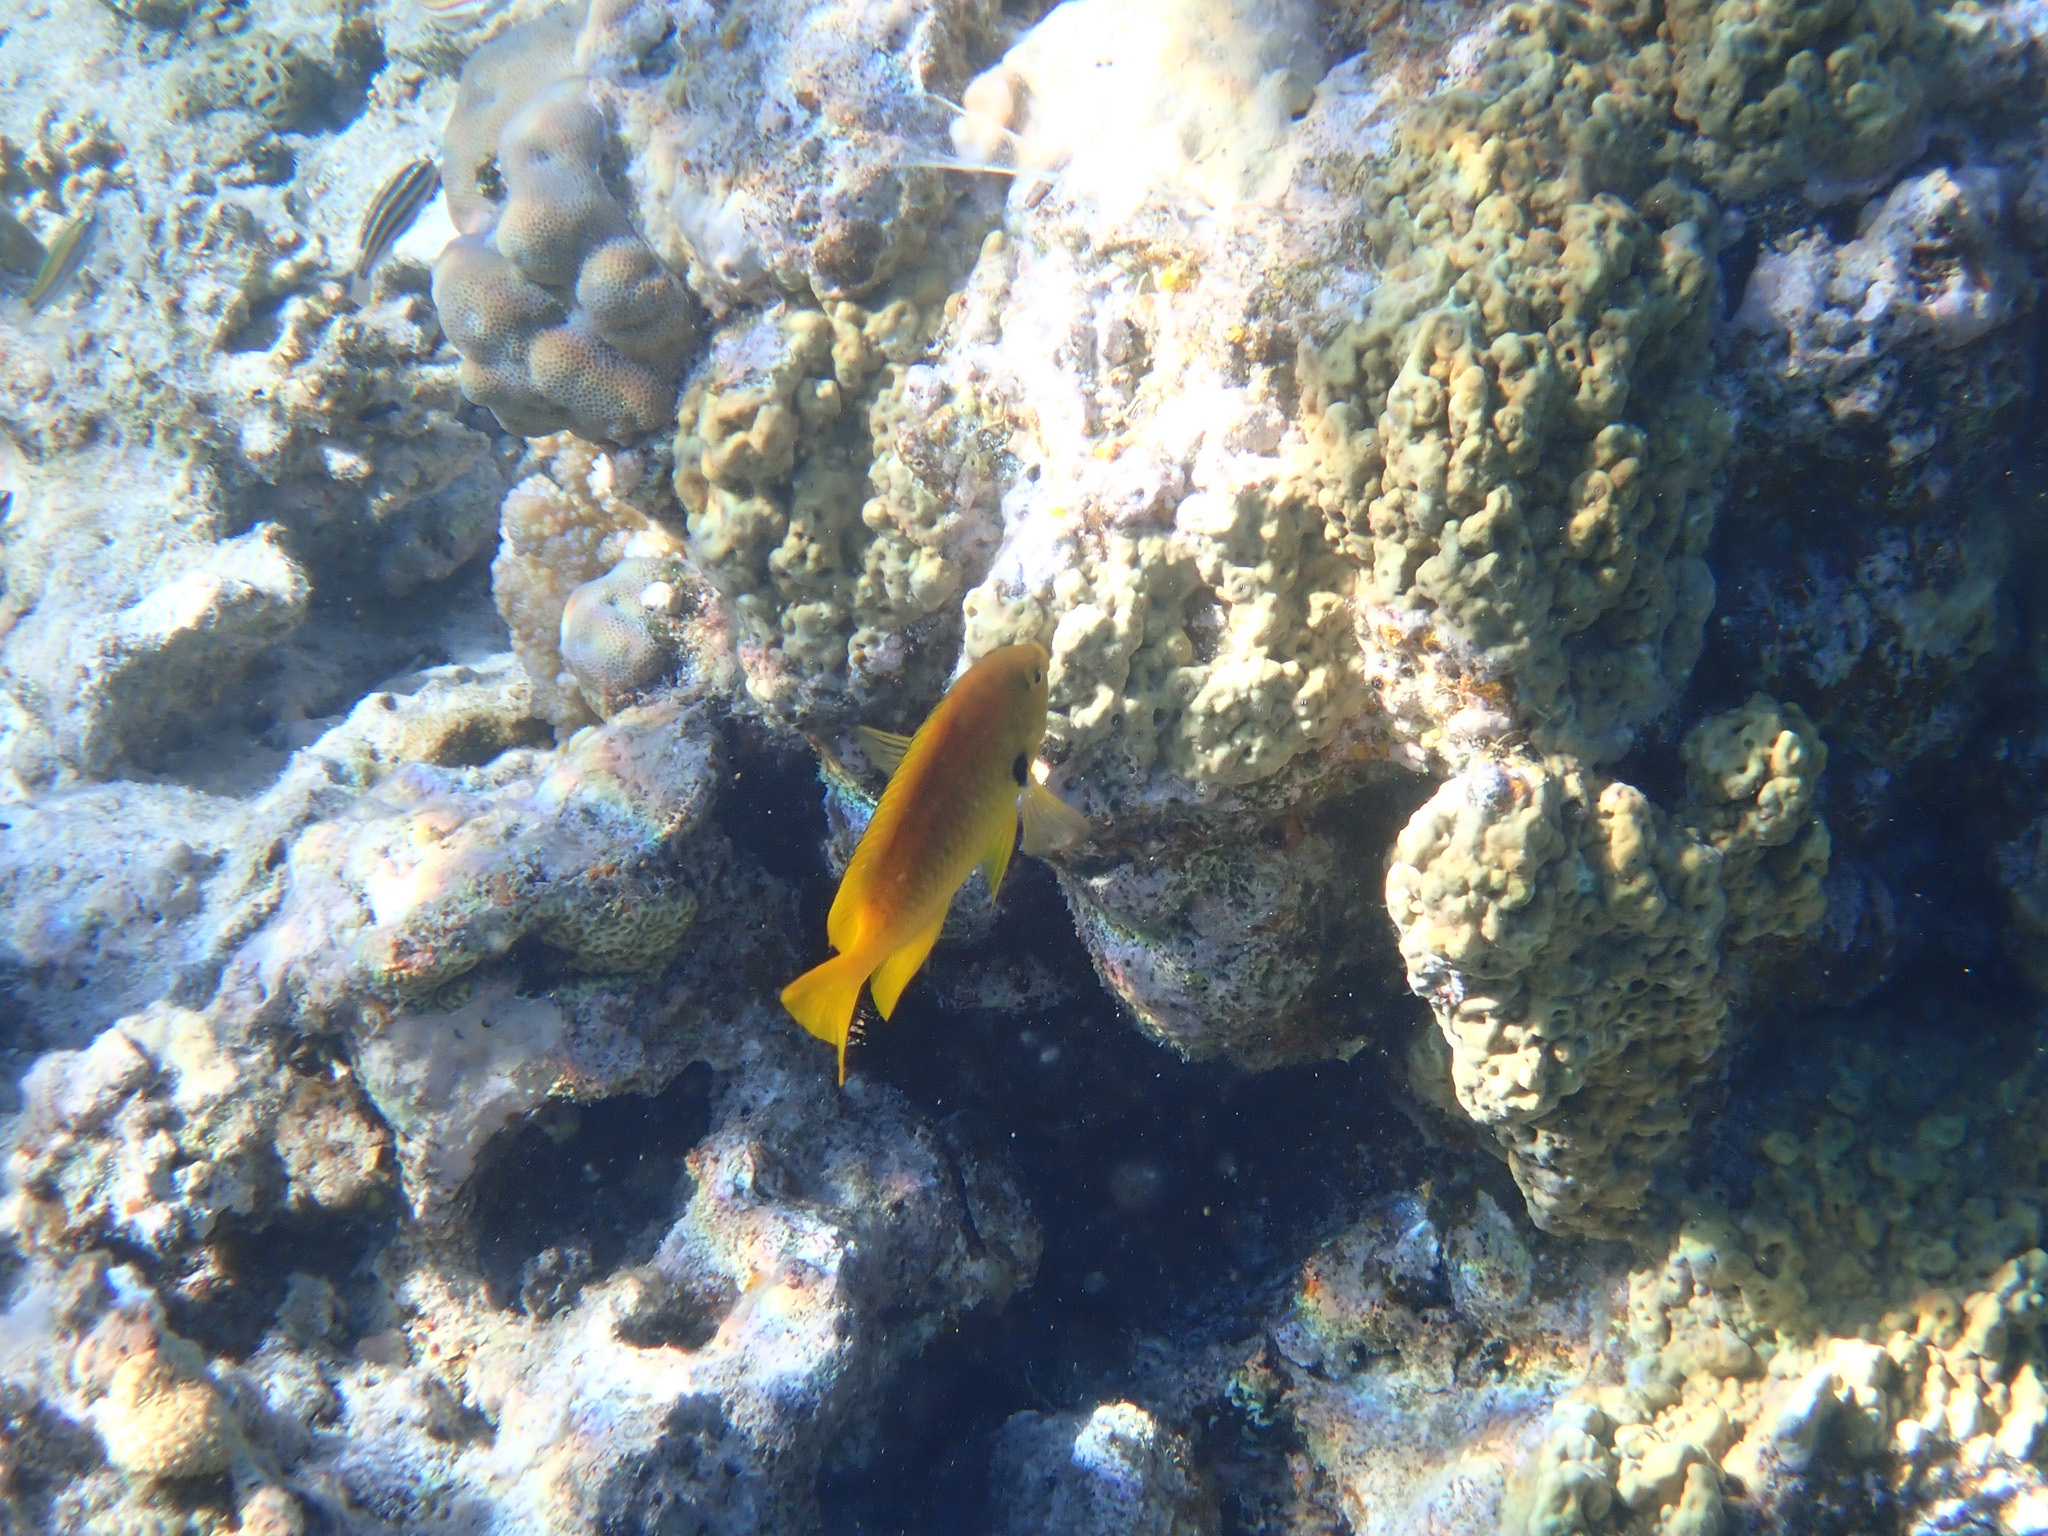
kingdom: Animalia
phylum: Chordata
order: Perciformes
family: Pomacentridae
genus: Pomacentrus
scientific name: Pomacentrus sulfureus
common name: Sulfur damsel
